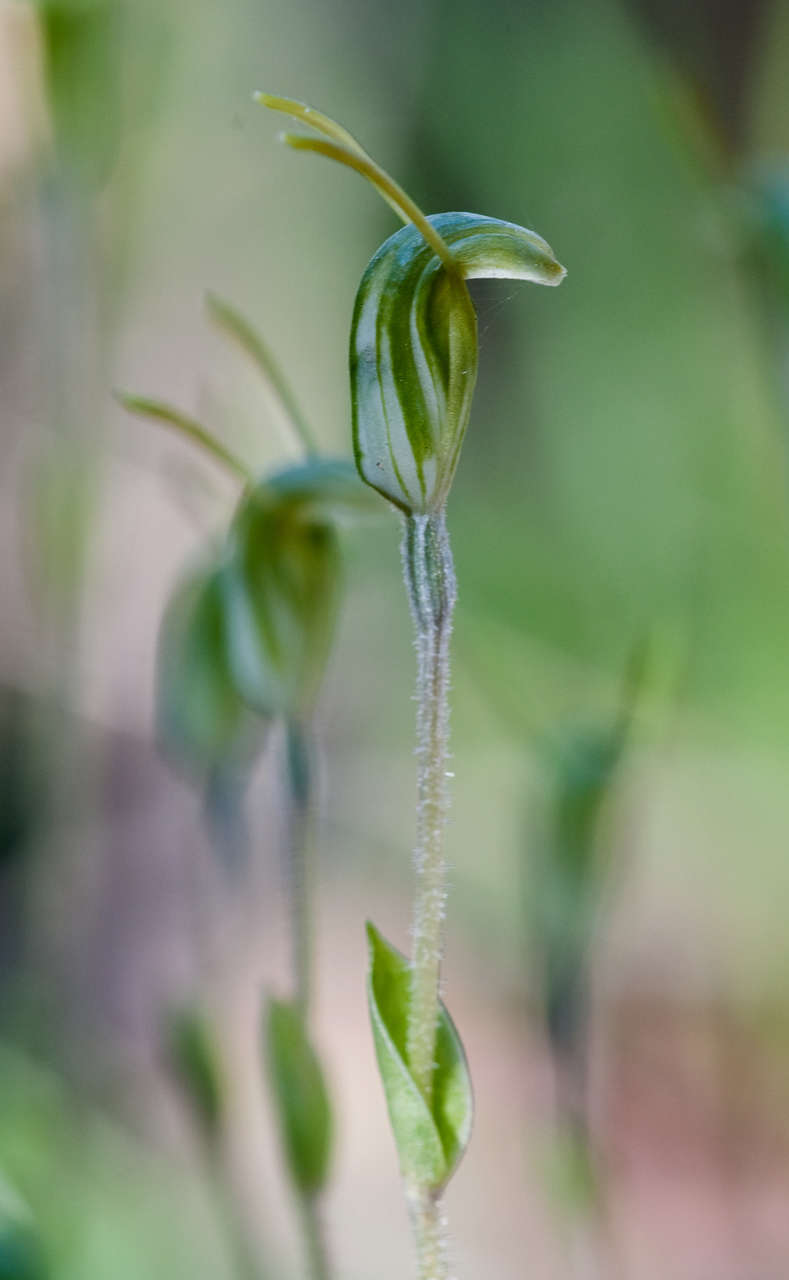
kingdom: Plantae
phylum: Tracheophyta
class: Liliopsida
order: Asparagales
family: Orchidaceae
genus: Pterostylis
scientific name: Pterostylis nana
